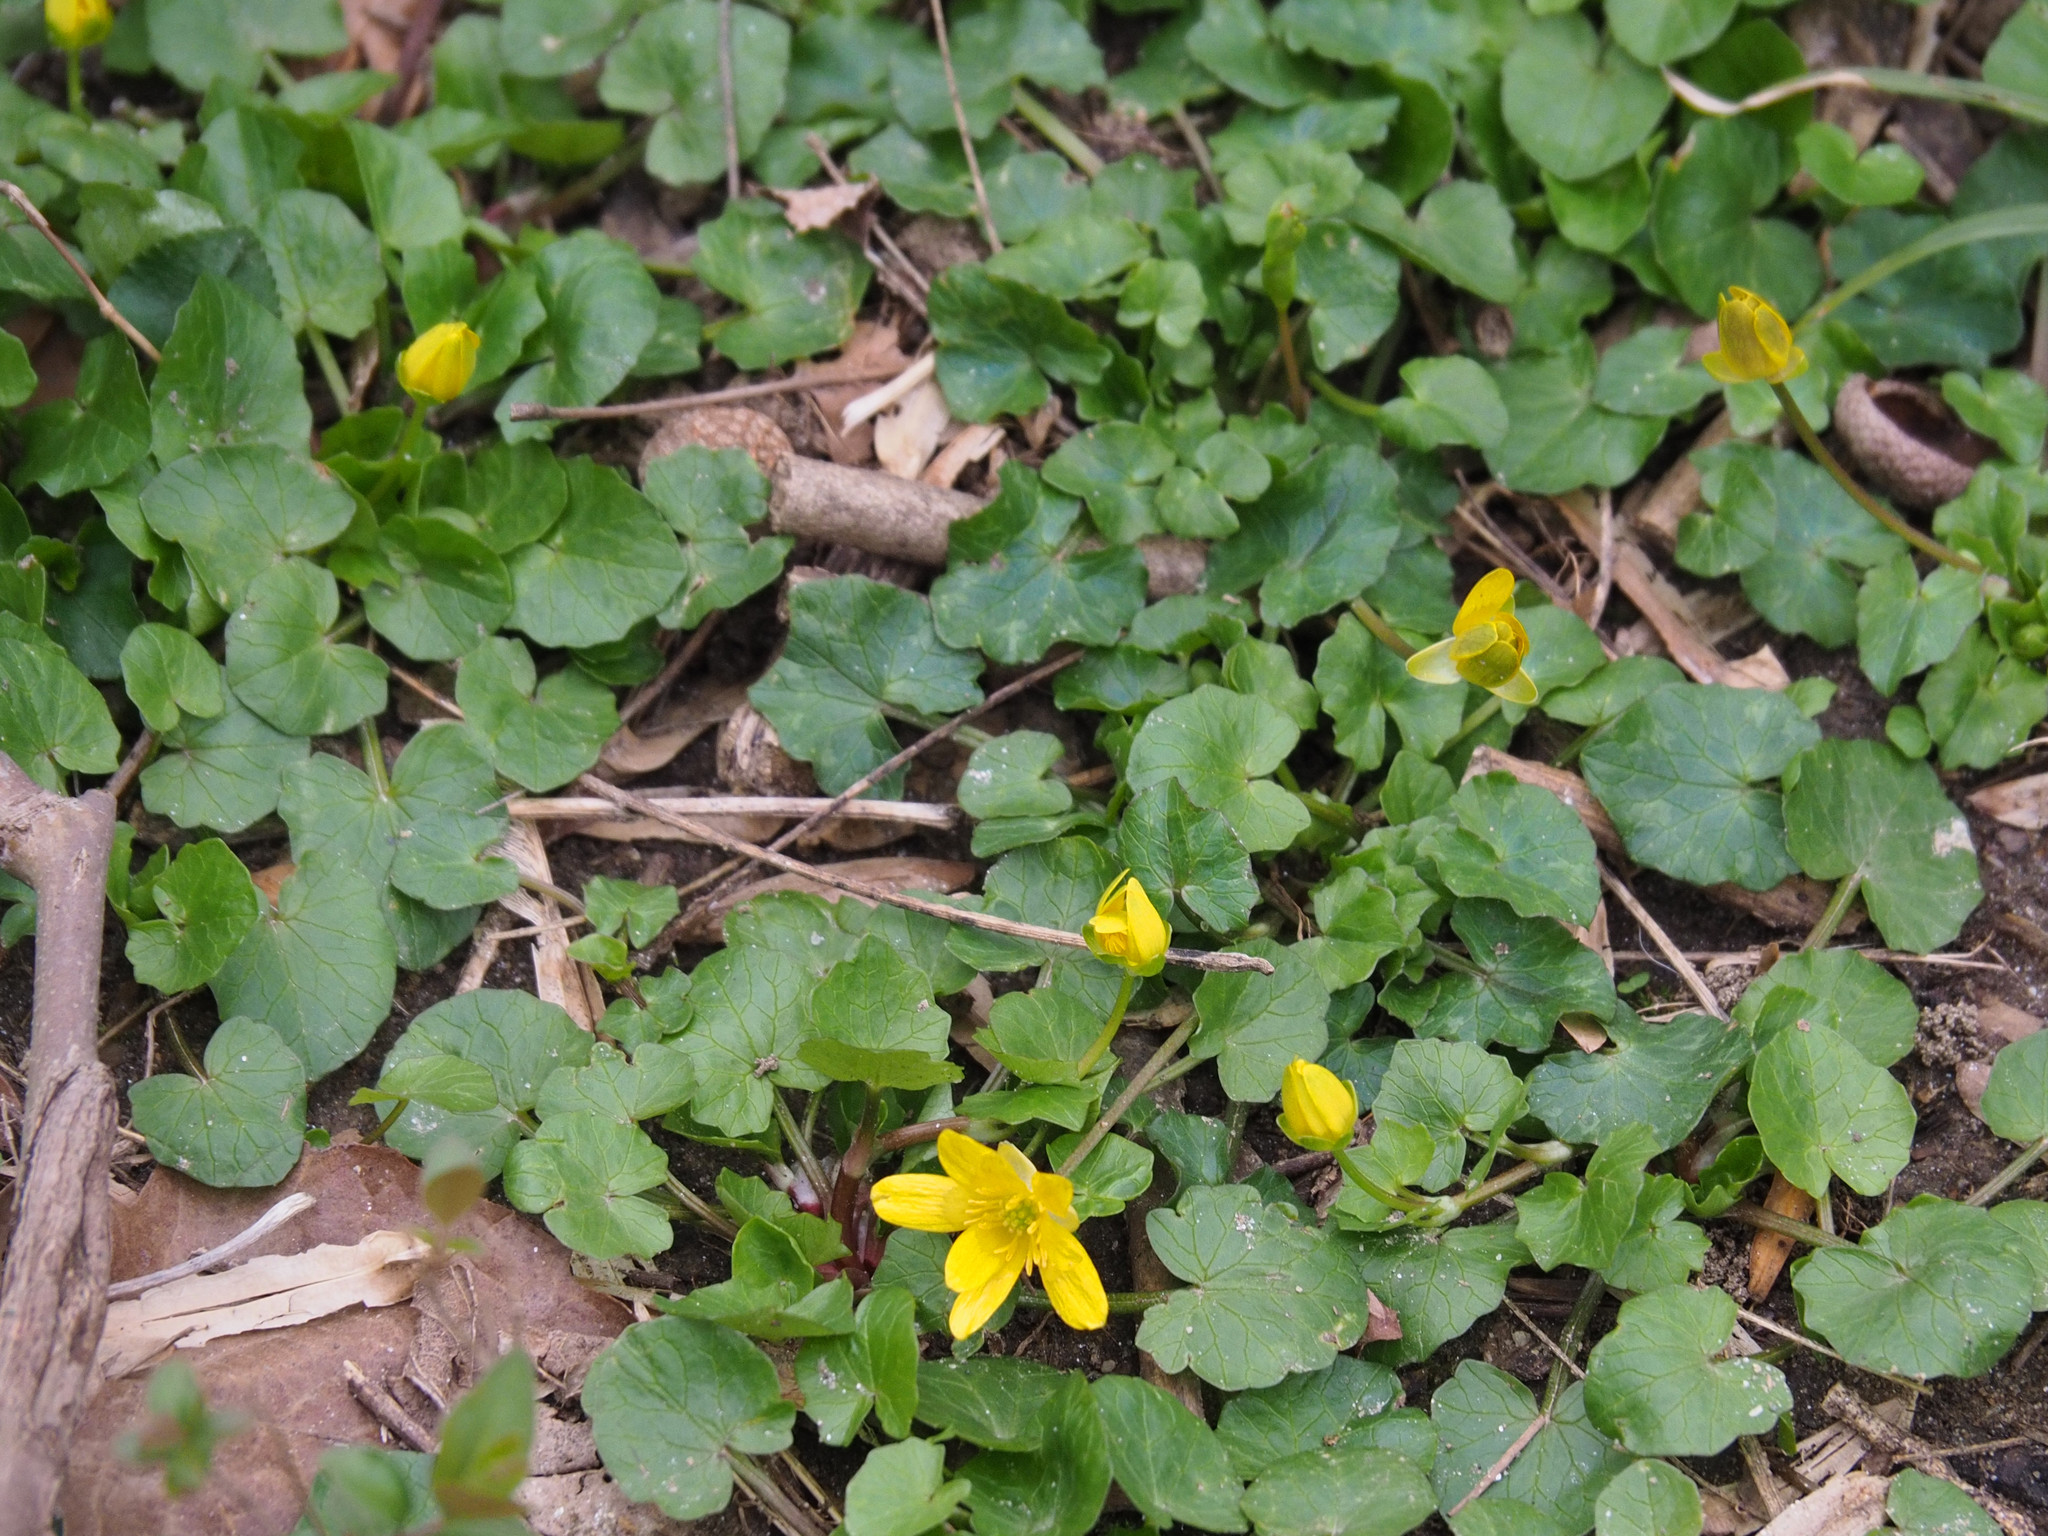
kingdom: Plantae
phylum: Tracheophyta
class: Magnoliopsida
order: Ranunculales
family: Ranunculaceae
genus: Ficaria
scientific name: Ficaria verna
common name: Lesser celandine
